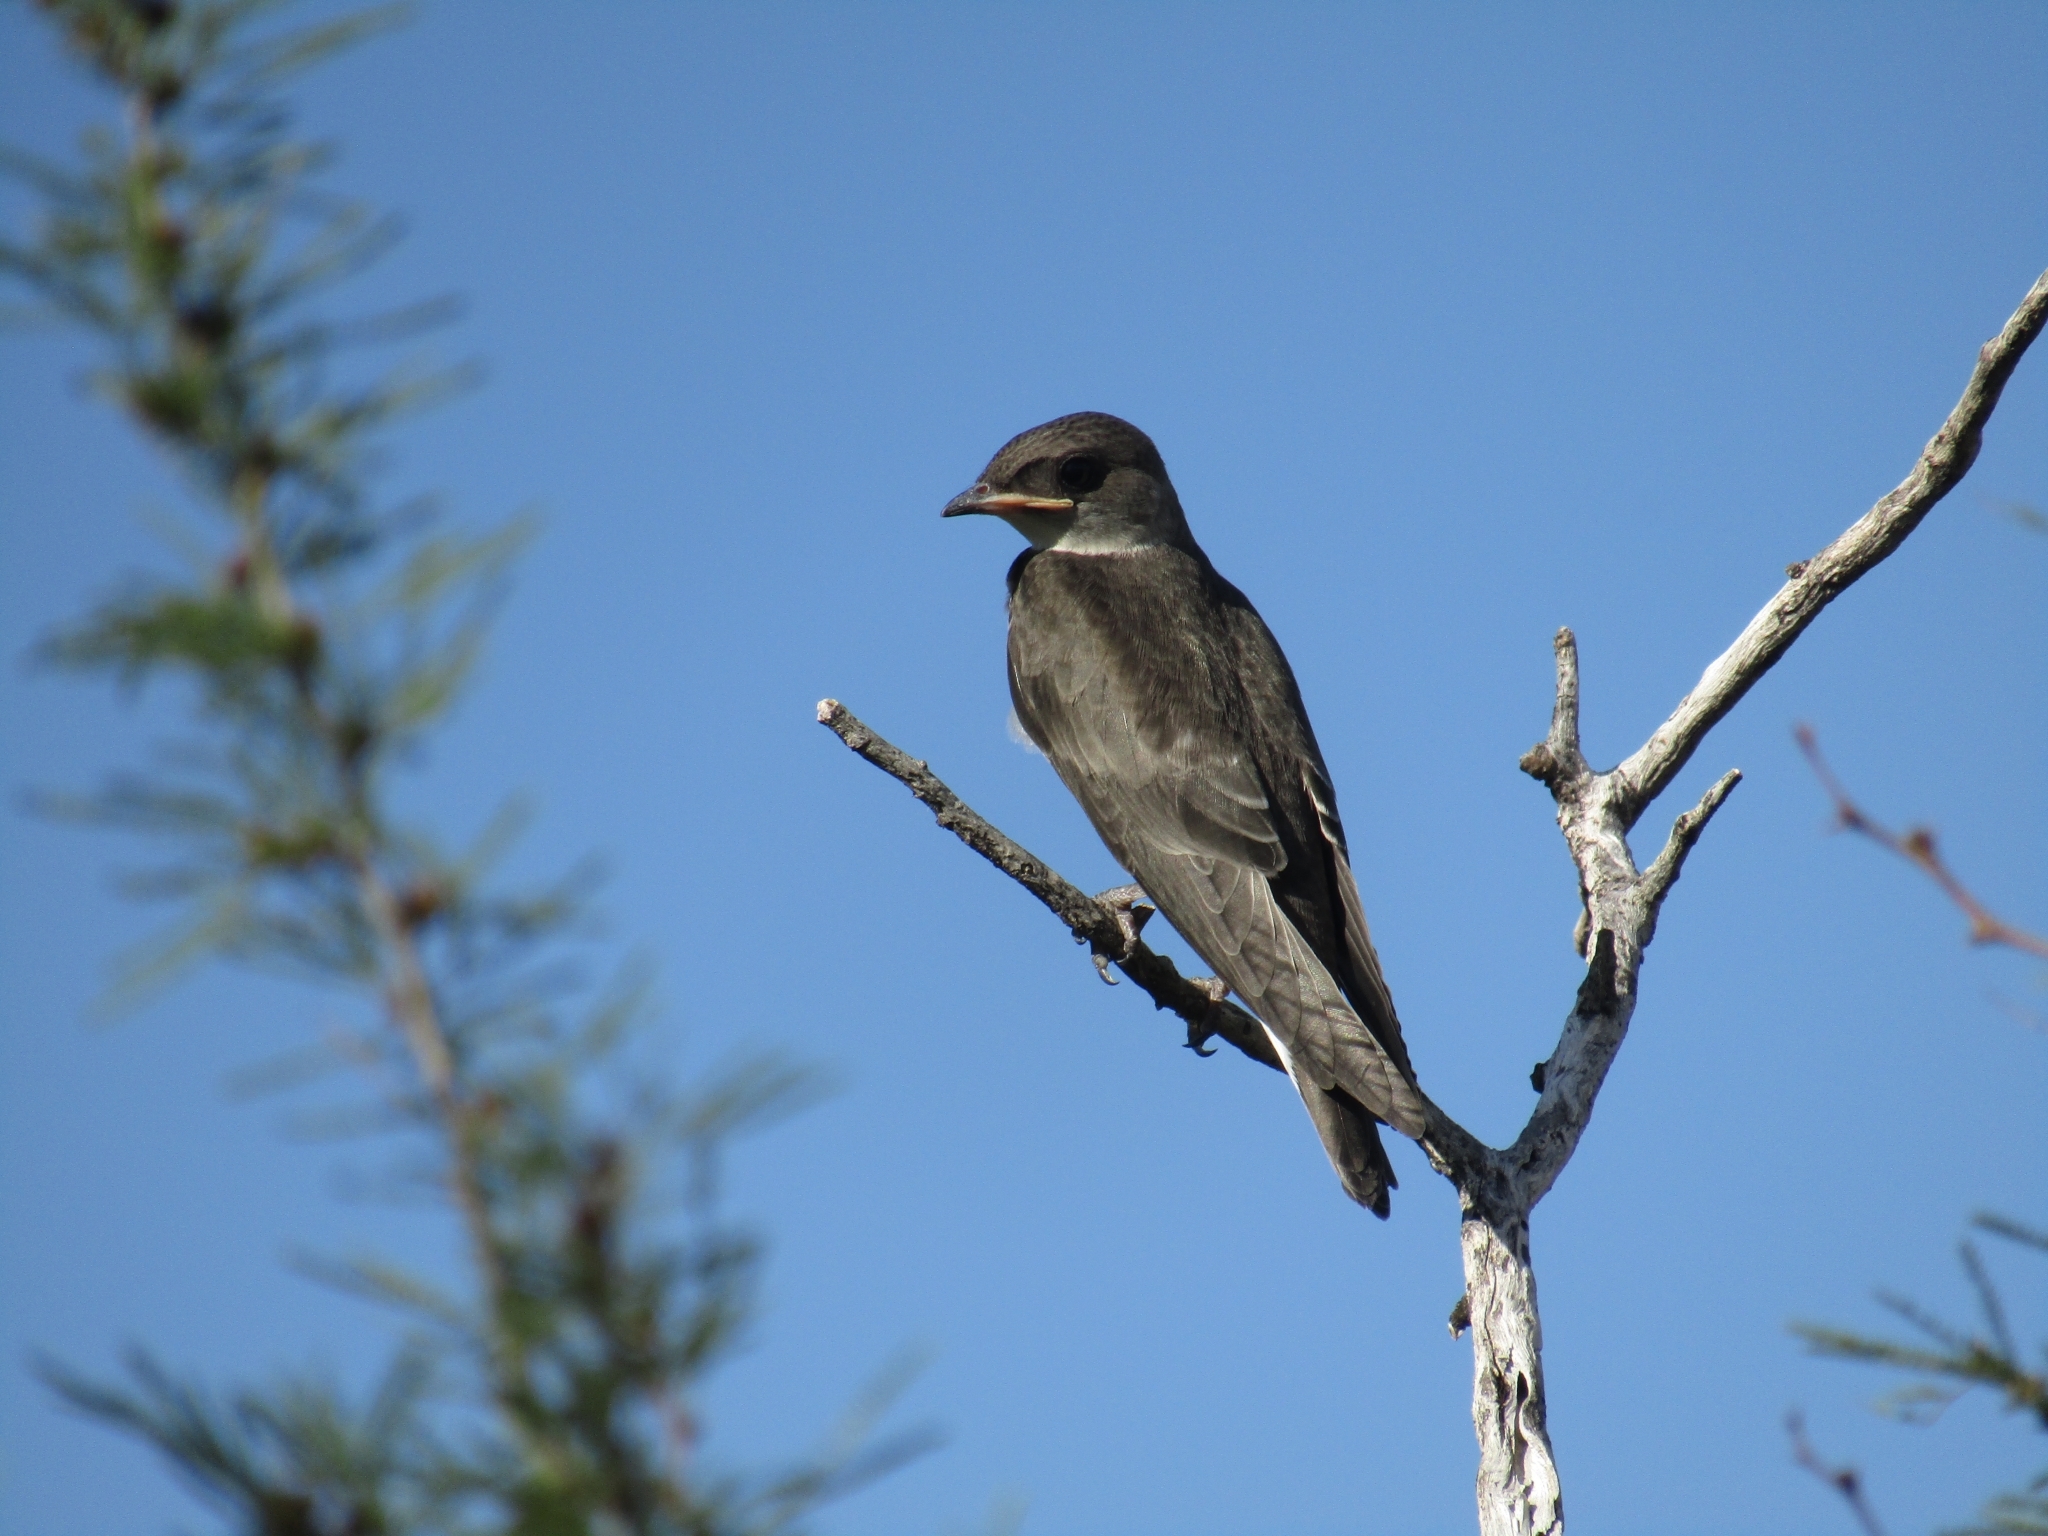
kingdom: Animalia
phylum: Chordata
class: Aves
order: Passeriformes
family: Hirundinidae
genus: Progne
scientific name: Progne tapera
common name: Brown-chested martin
